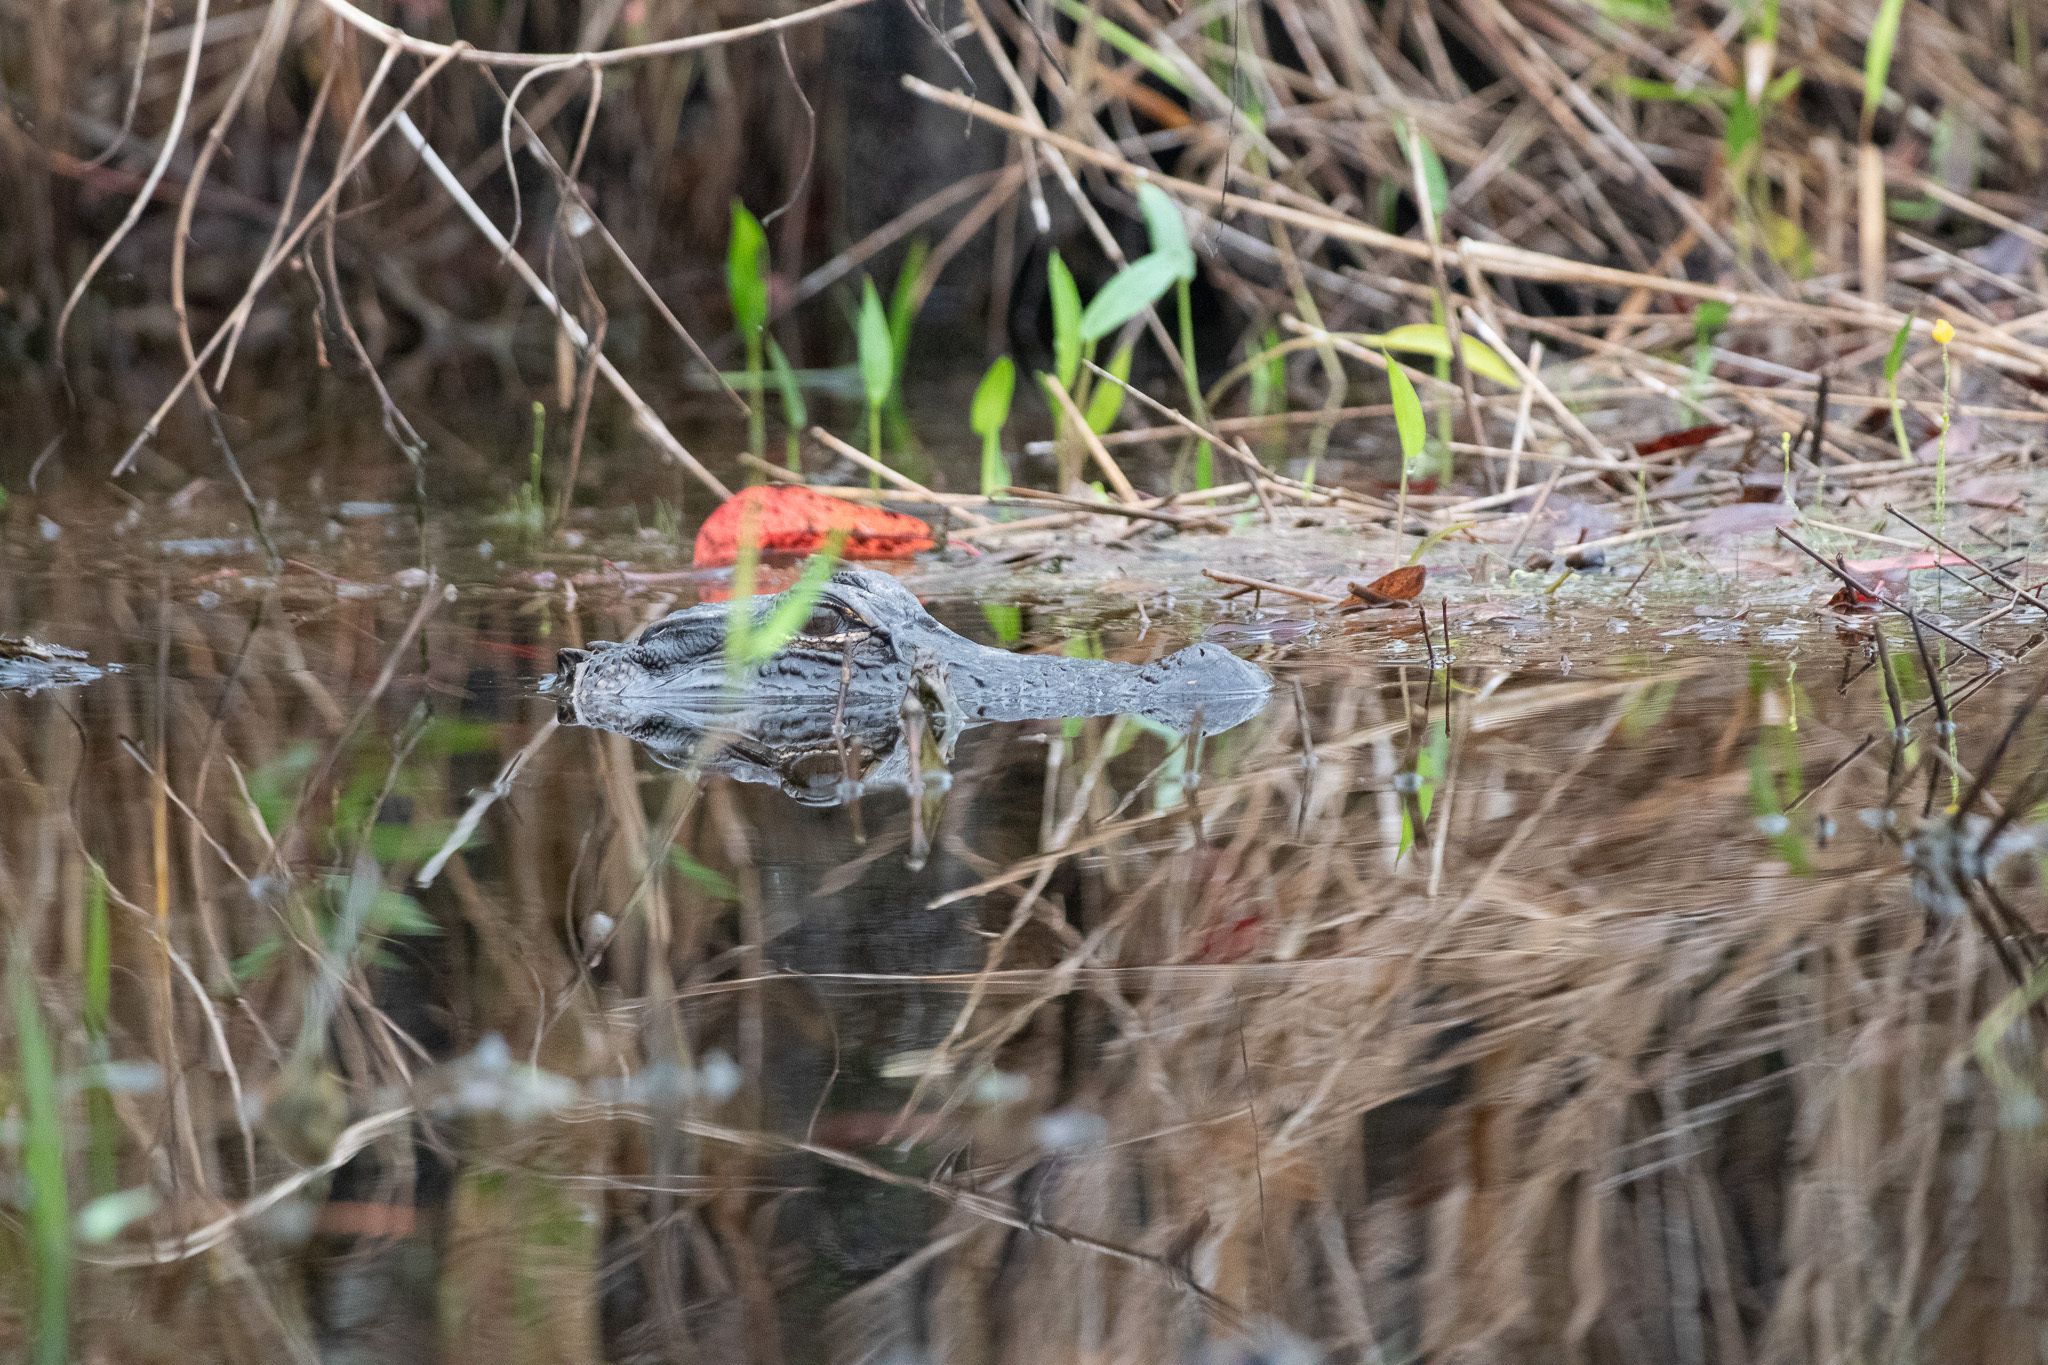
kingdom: Animalia
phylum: Chordata
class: Crocodylia
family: Alligatoridae
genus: Alligator
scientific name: Alligator mississippiensis
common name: American alligator
